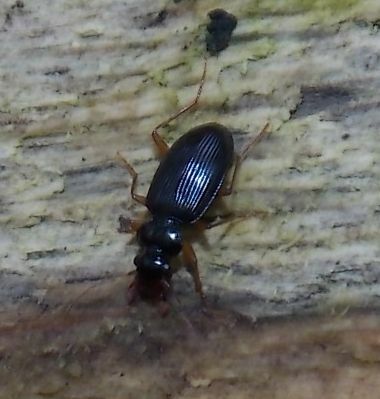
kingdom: Animalia
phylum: Arthropoda
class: Insecta
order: Coleoptera
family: Carabidae
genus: Leistus
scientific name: Leistus rufomarginatus
